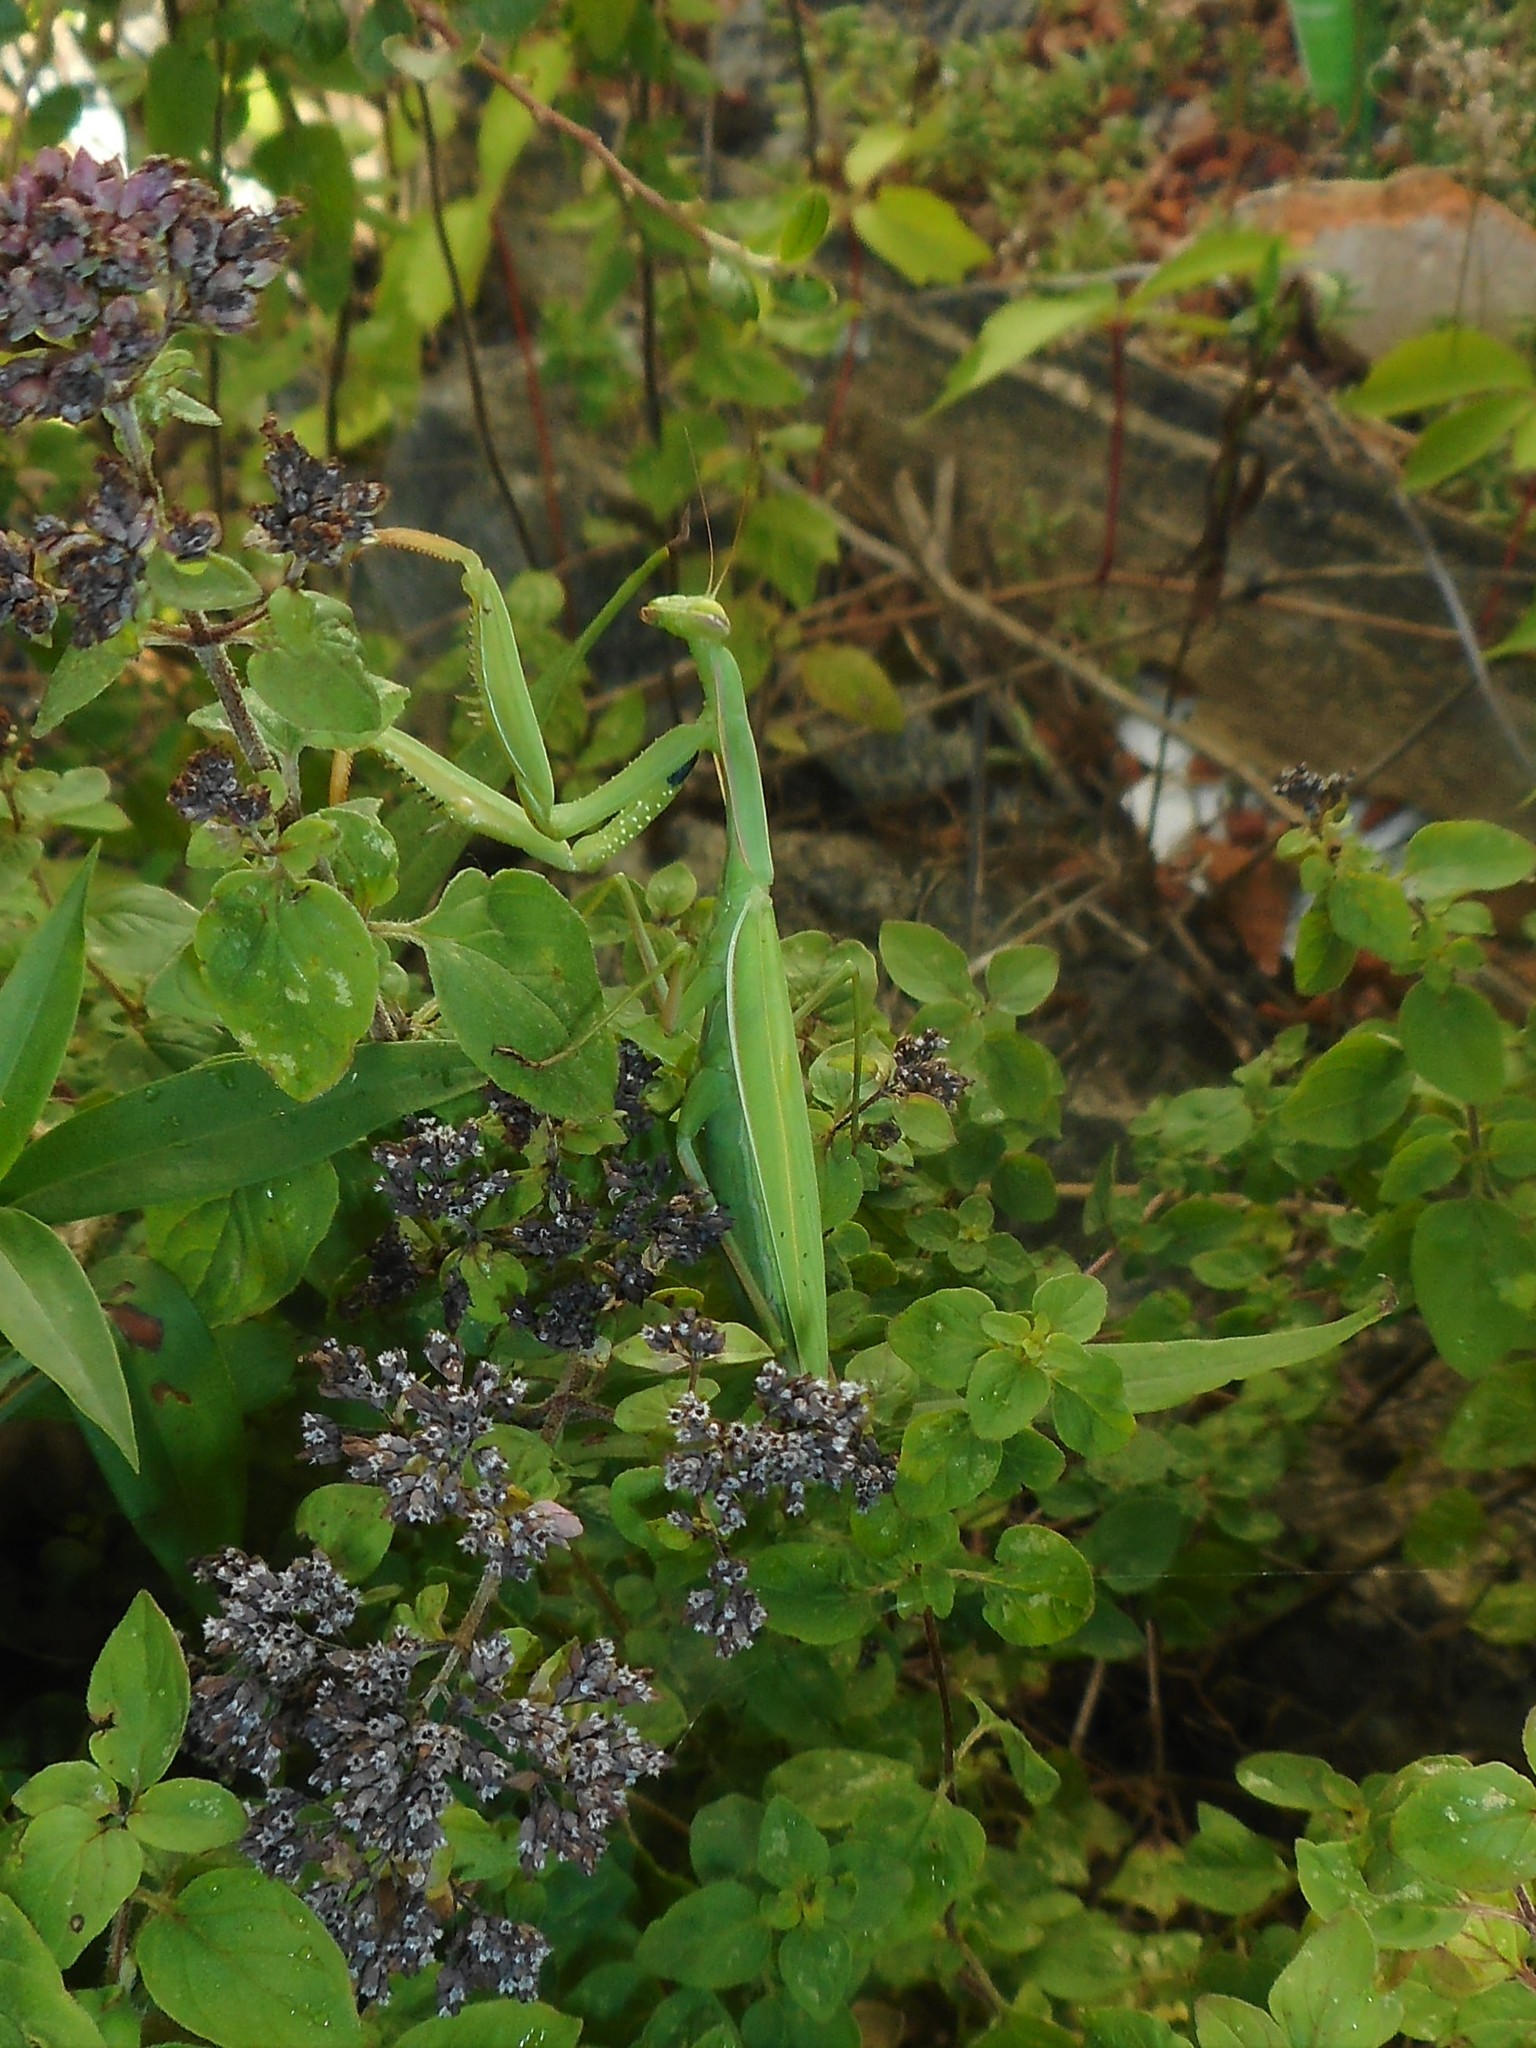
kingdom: Animalia
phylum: Arthropoda
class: Insecta
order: Mantodea
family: Mantidae
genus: Mantis
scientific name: Mantis religiosa
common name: Praying mantis
